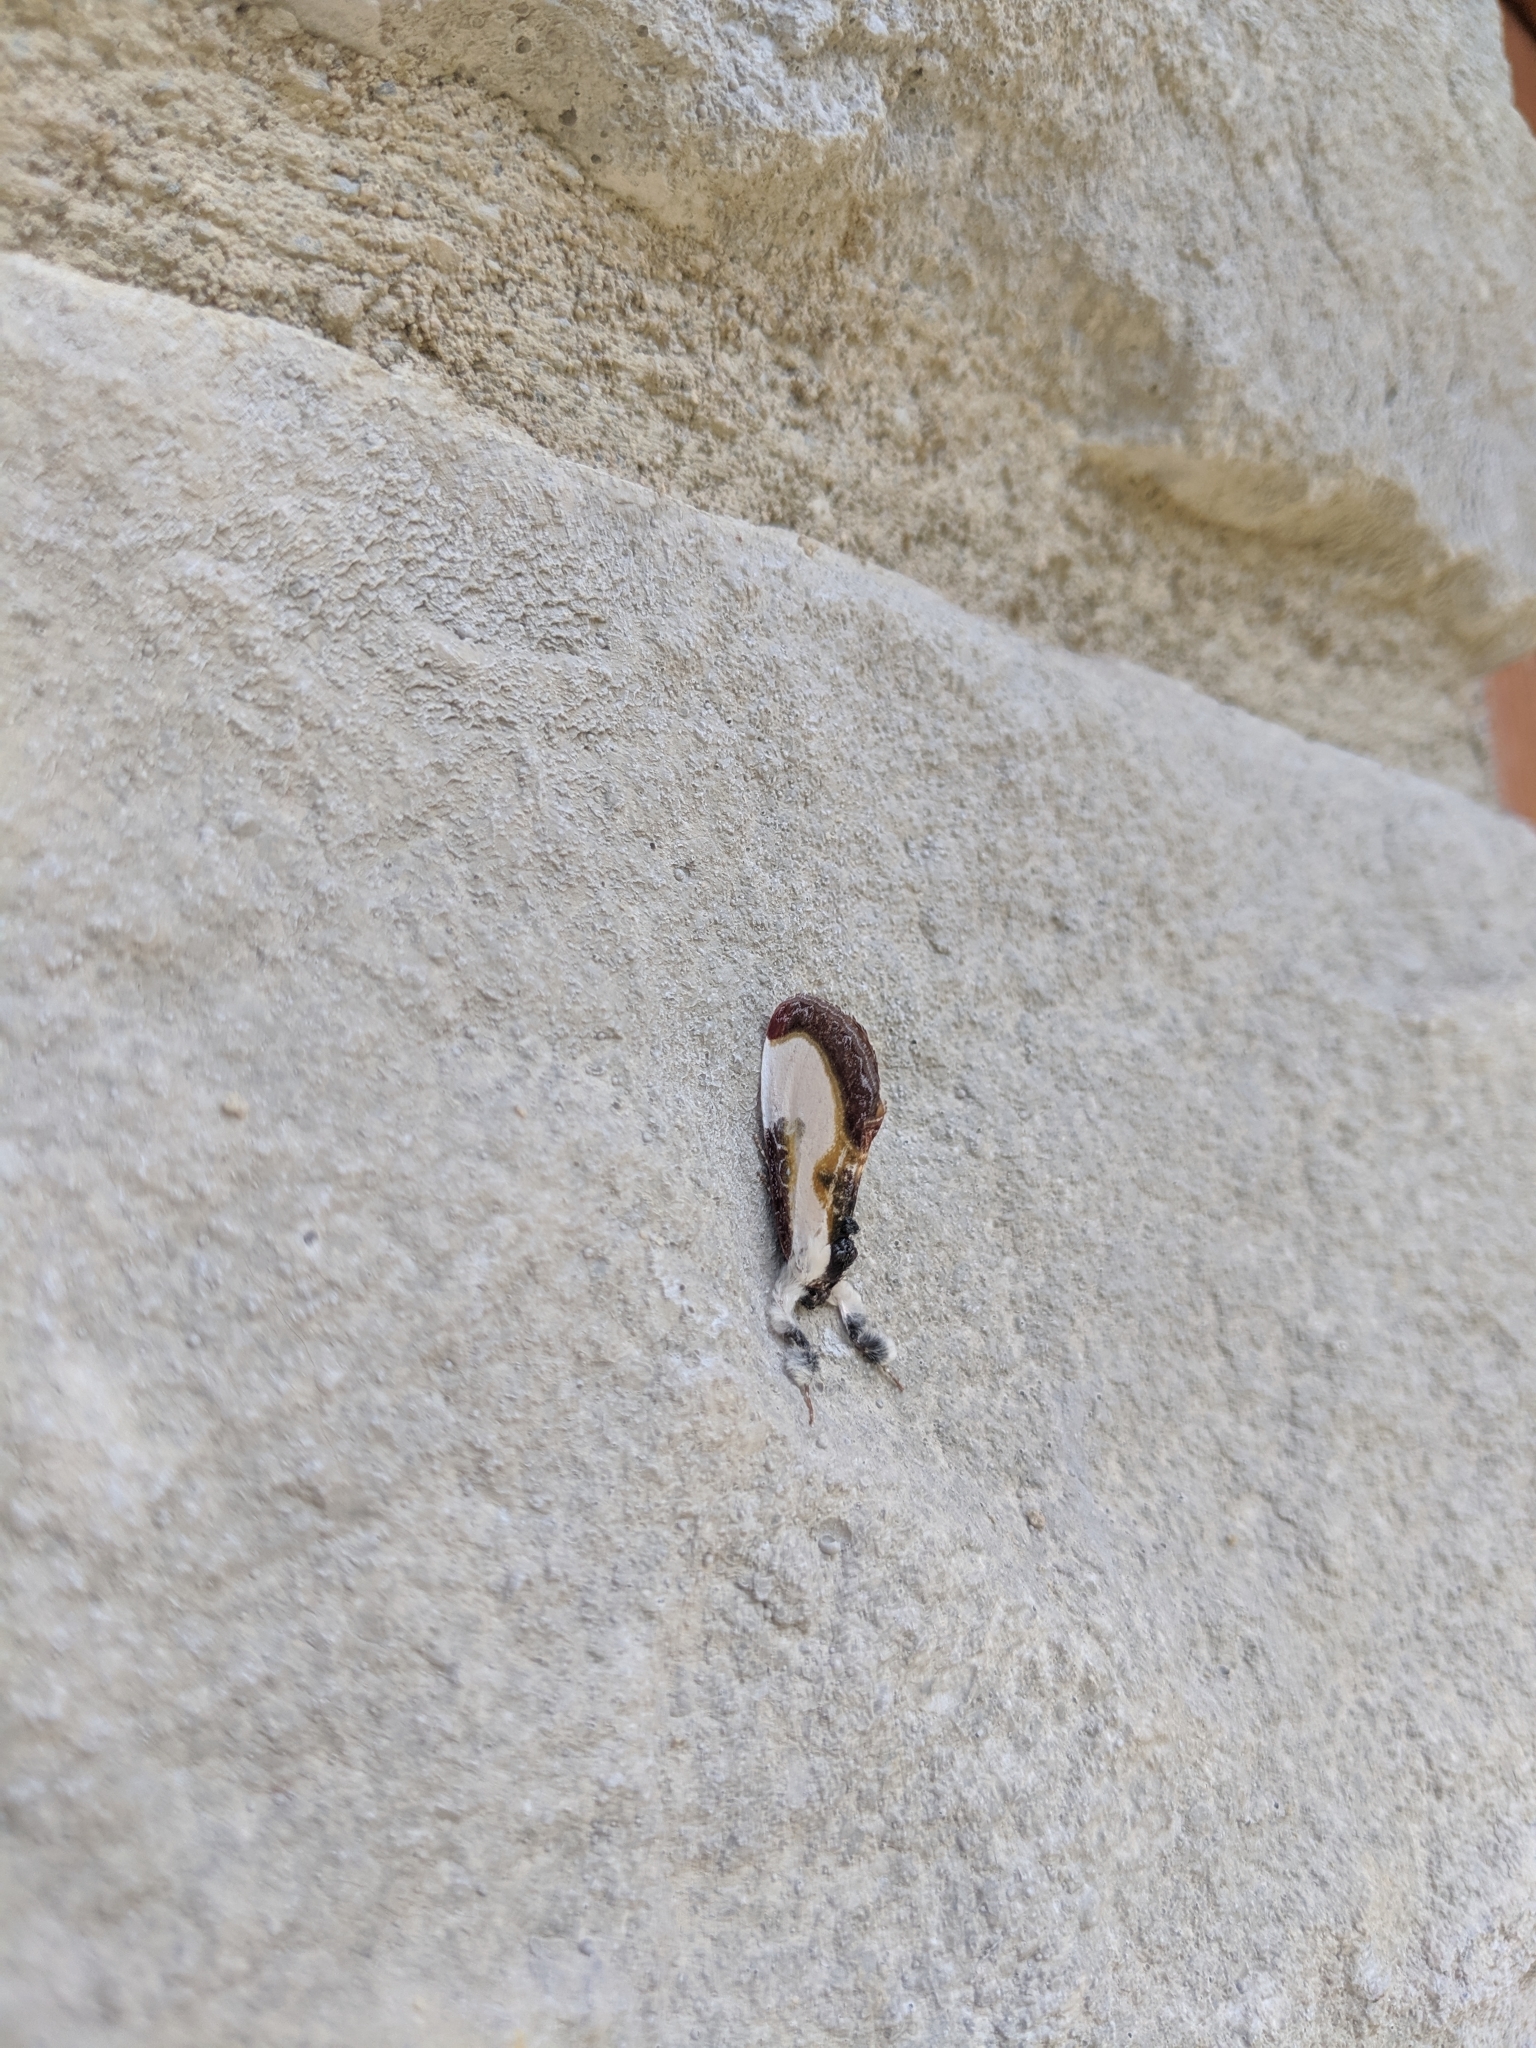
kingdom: Animalia
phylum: Arthropoda
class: Insecta
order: Lepidoptera
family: Noctuidae
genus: Eudryas
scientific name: Eudryas grata
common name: Beautiful wood-nymph
